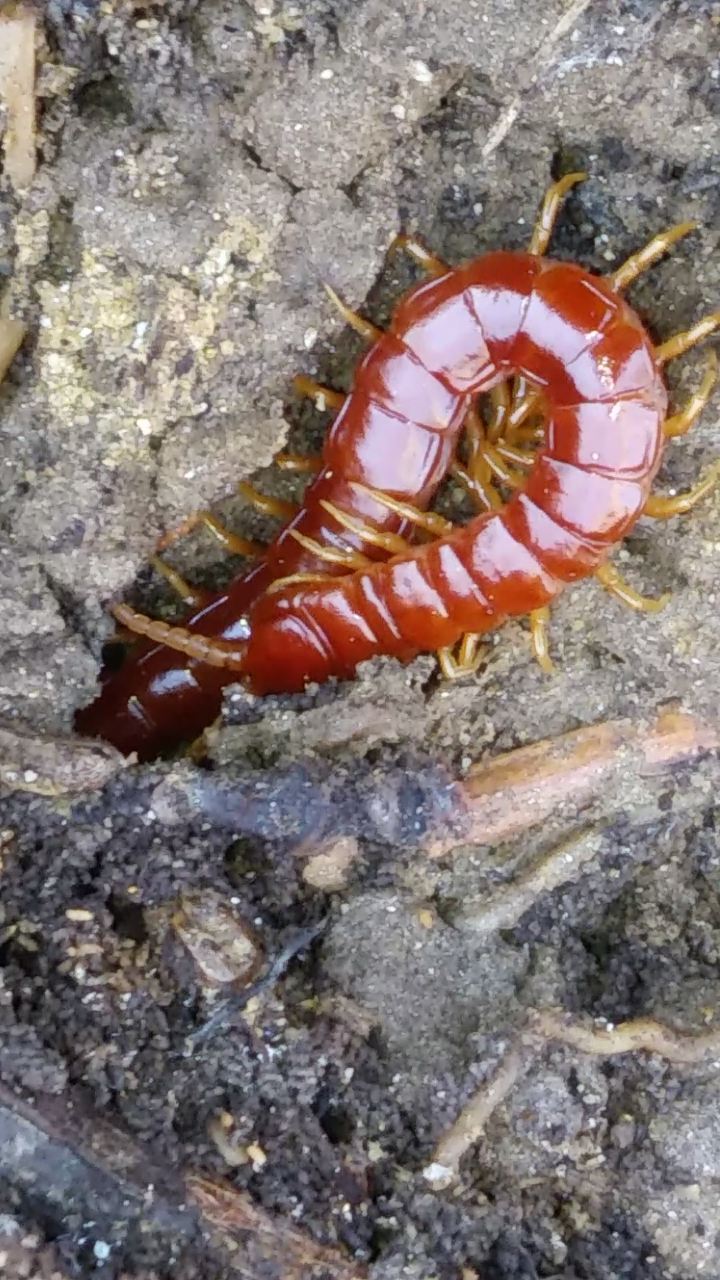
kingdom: Animalia
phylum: Arthropoda
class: Chilopoda
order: Scolopendromorpha
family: Scolopocryptopidae
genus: Scolopocryptops
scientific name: Scolopocryptops sexspinosus
